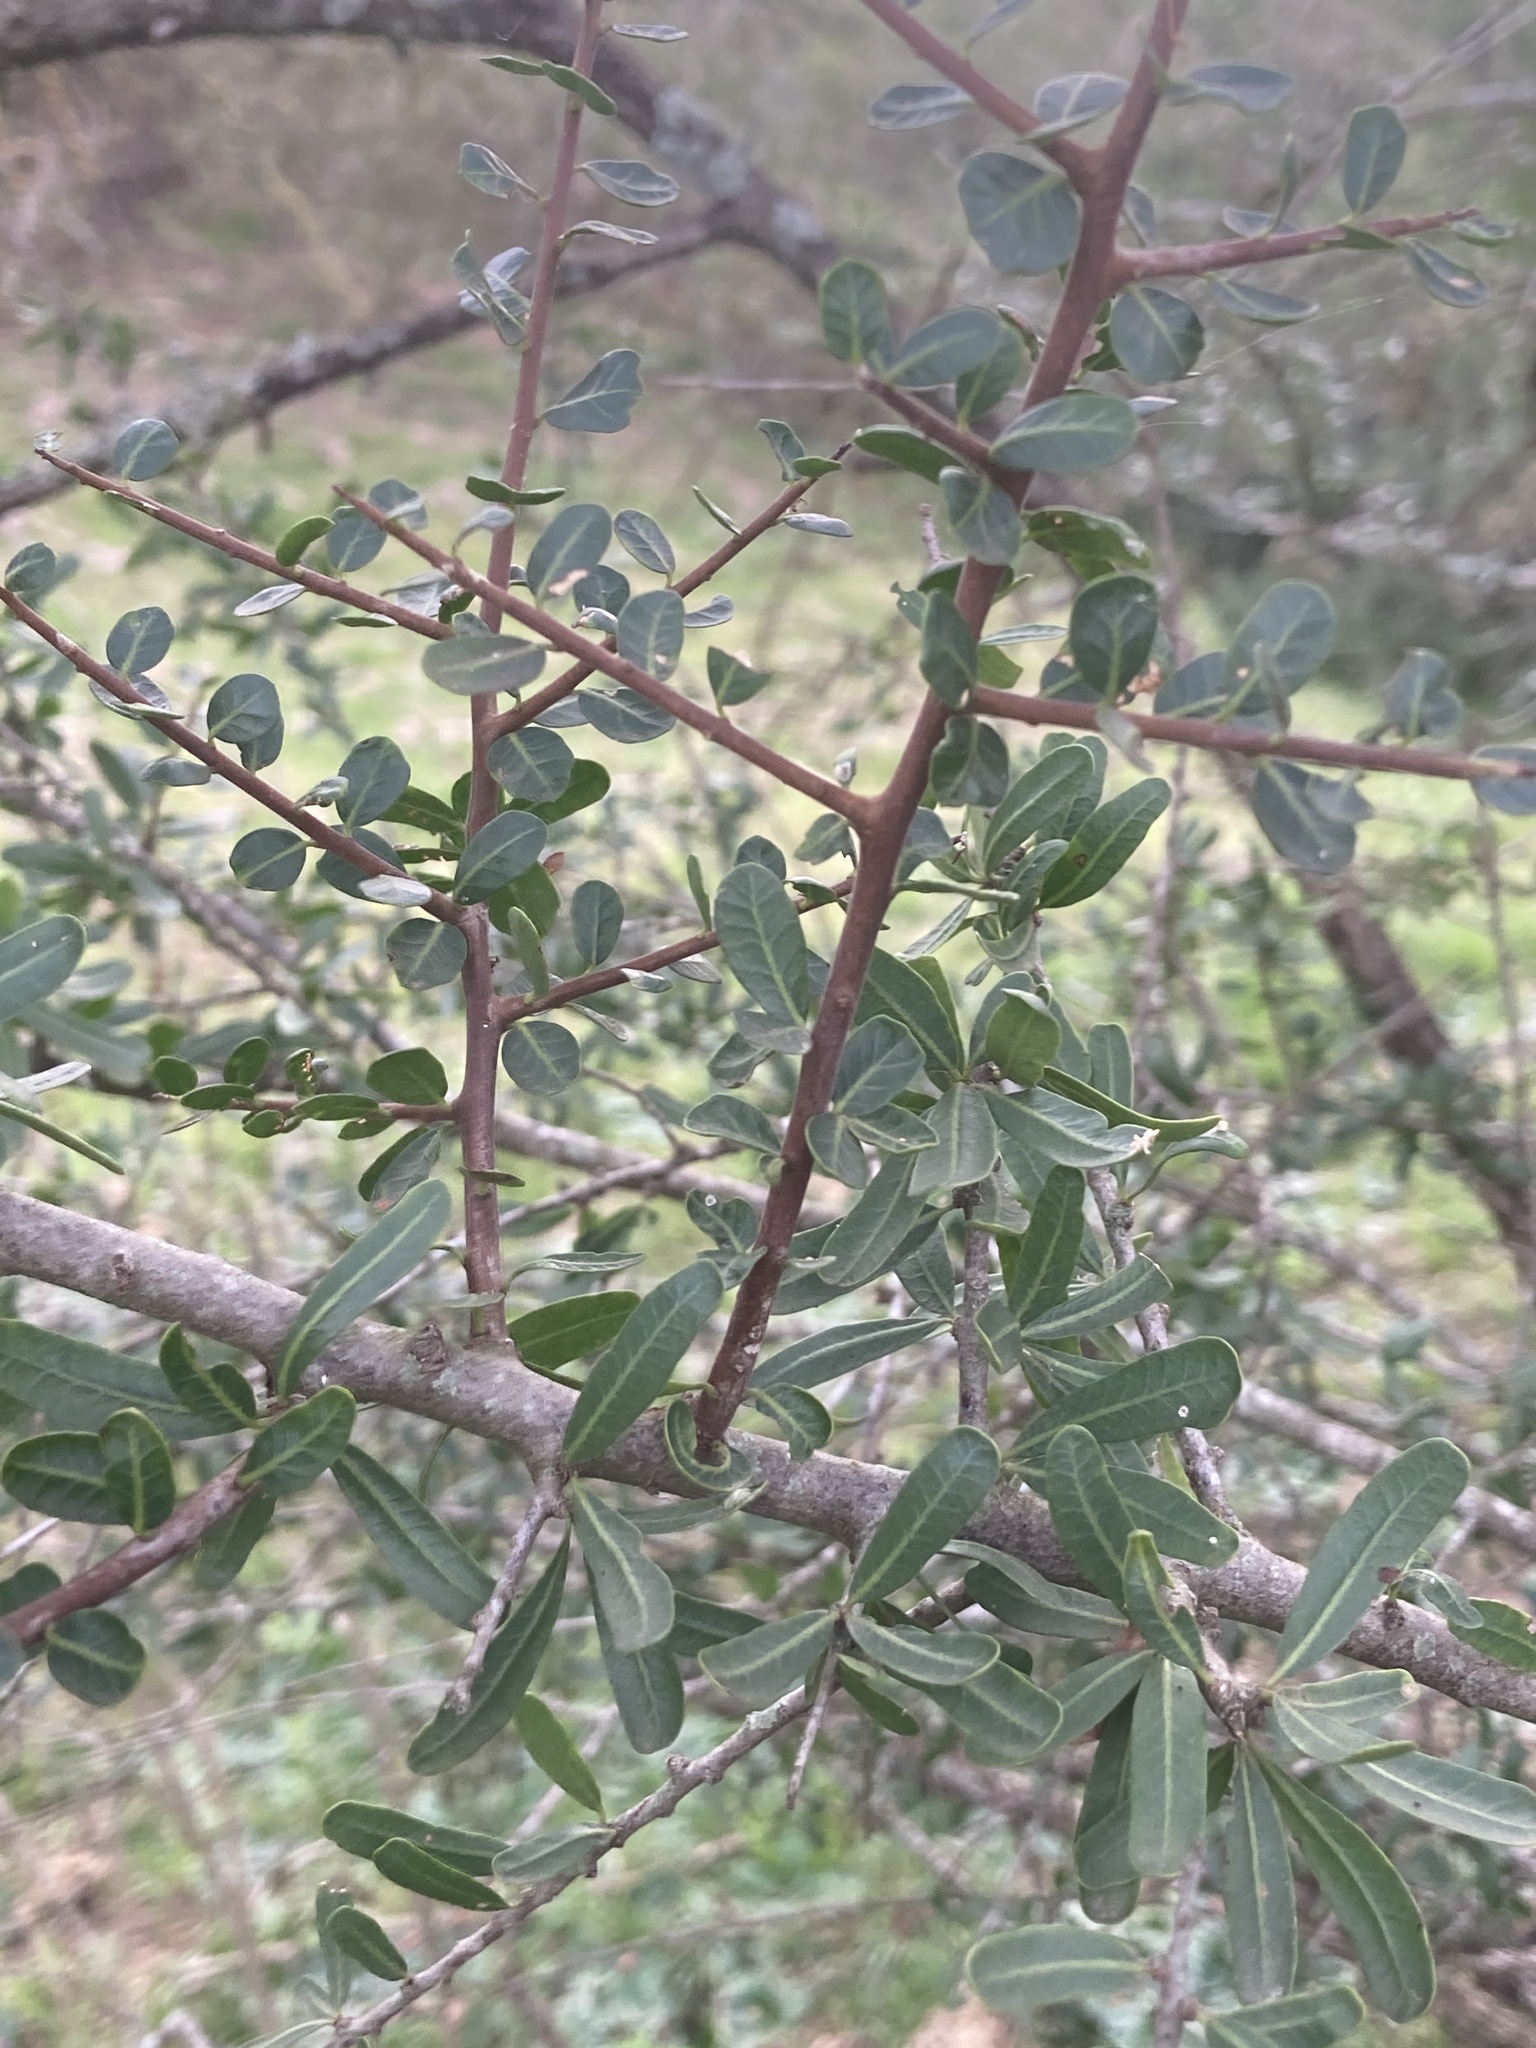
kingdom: Plantae
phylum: Tracheophyta
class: Magnoliopsida
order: Sapindales
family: Anacardiaceae
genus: Schinus
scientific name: Schinus fasciculata
